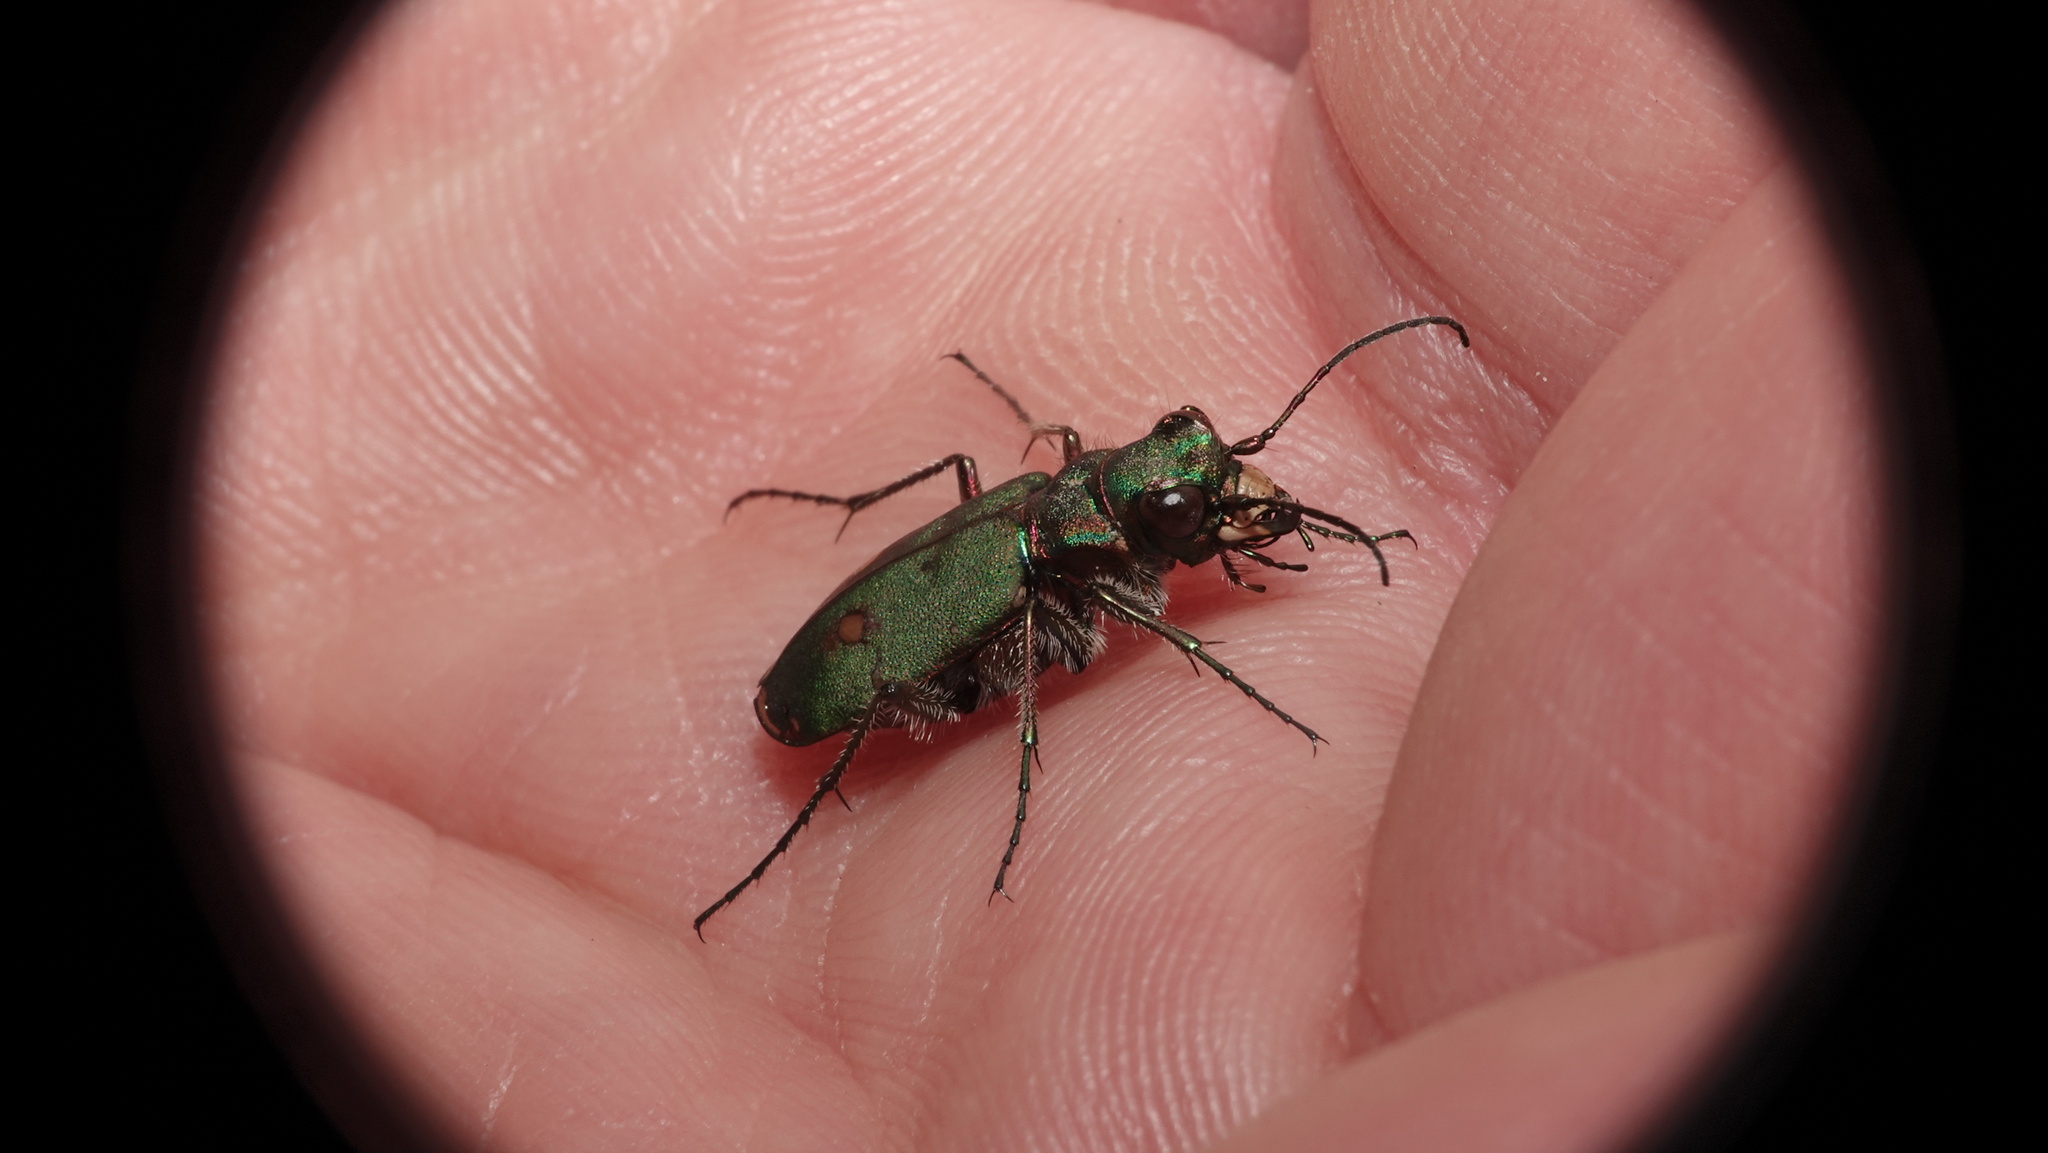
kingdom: Animalia
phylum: Arthropoda
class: Insecta
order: Coleoptera
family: Carabidae
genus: Cicindela
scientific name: Cicindela campestris
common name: Common tiger beetle
